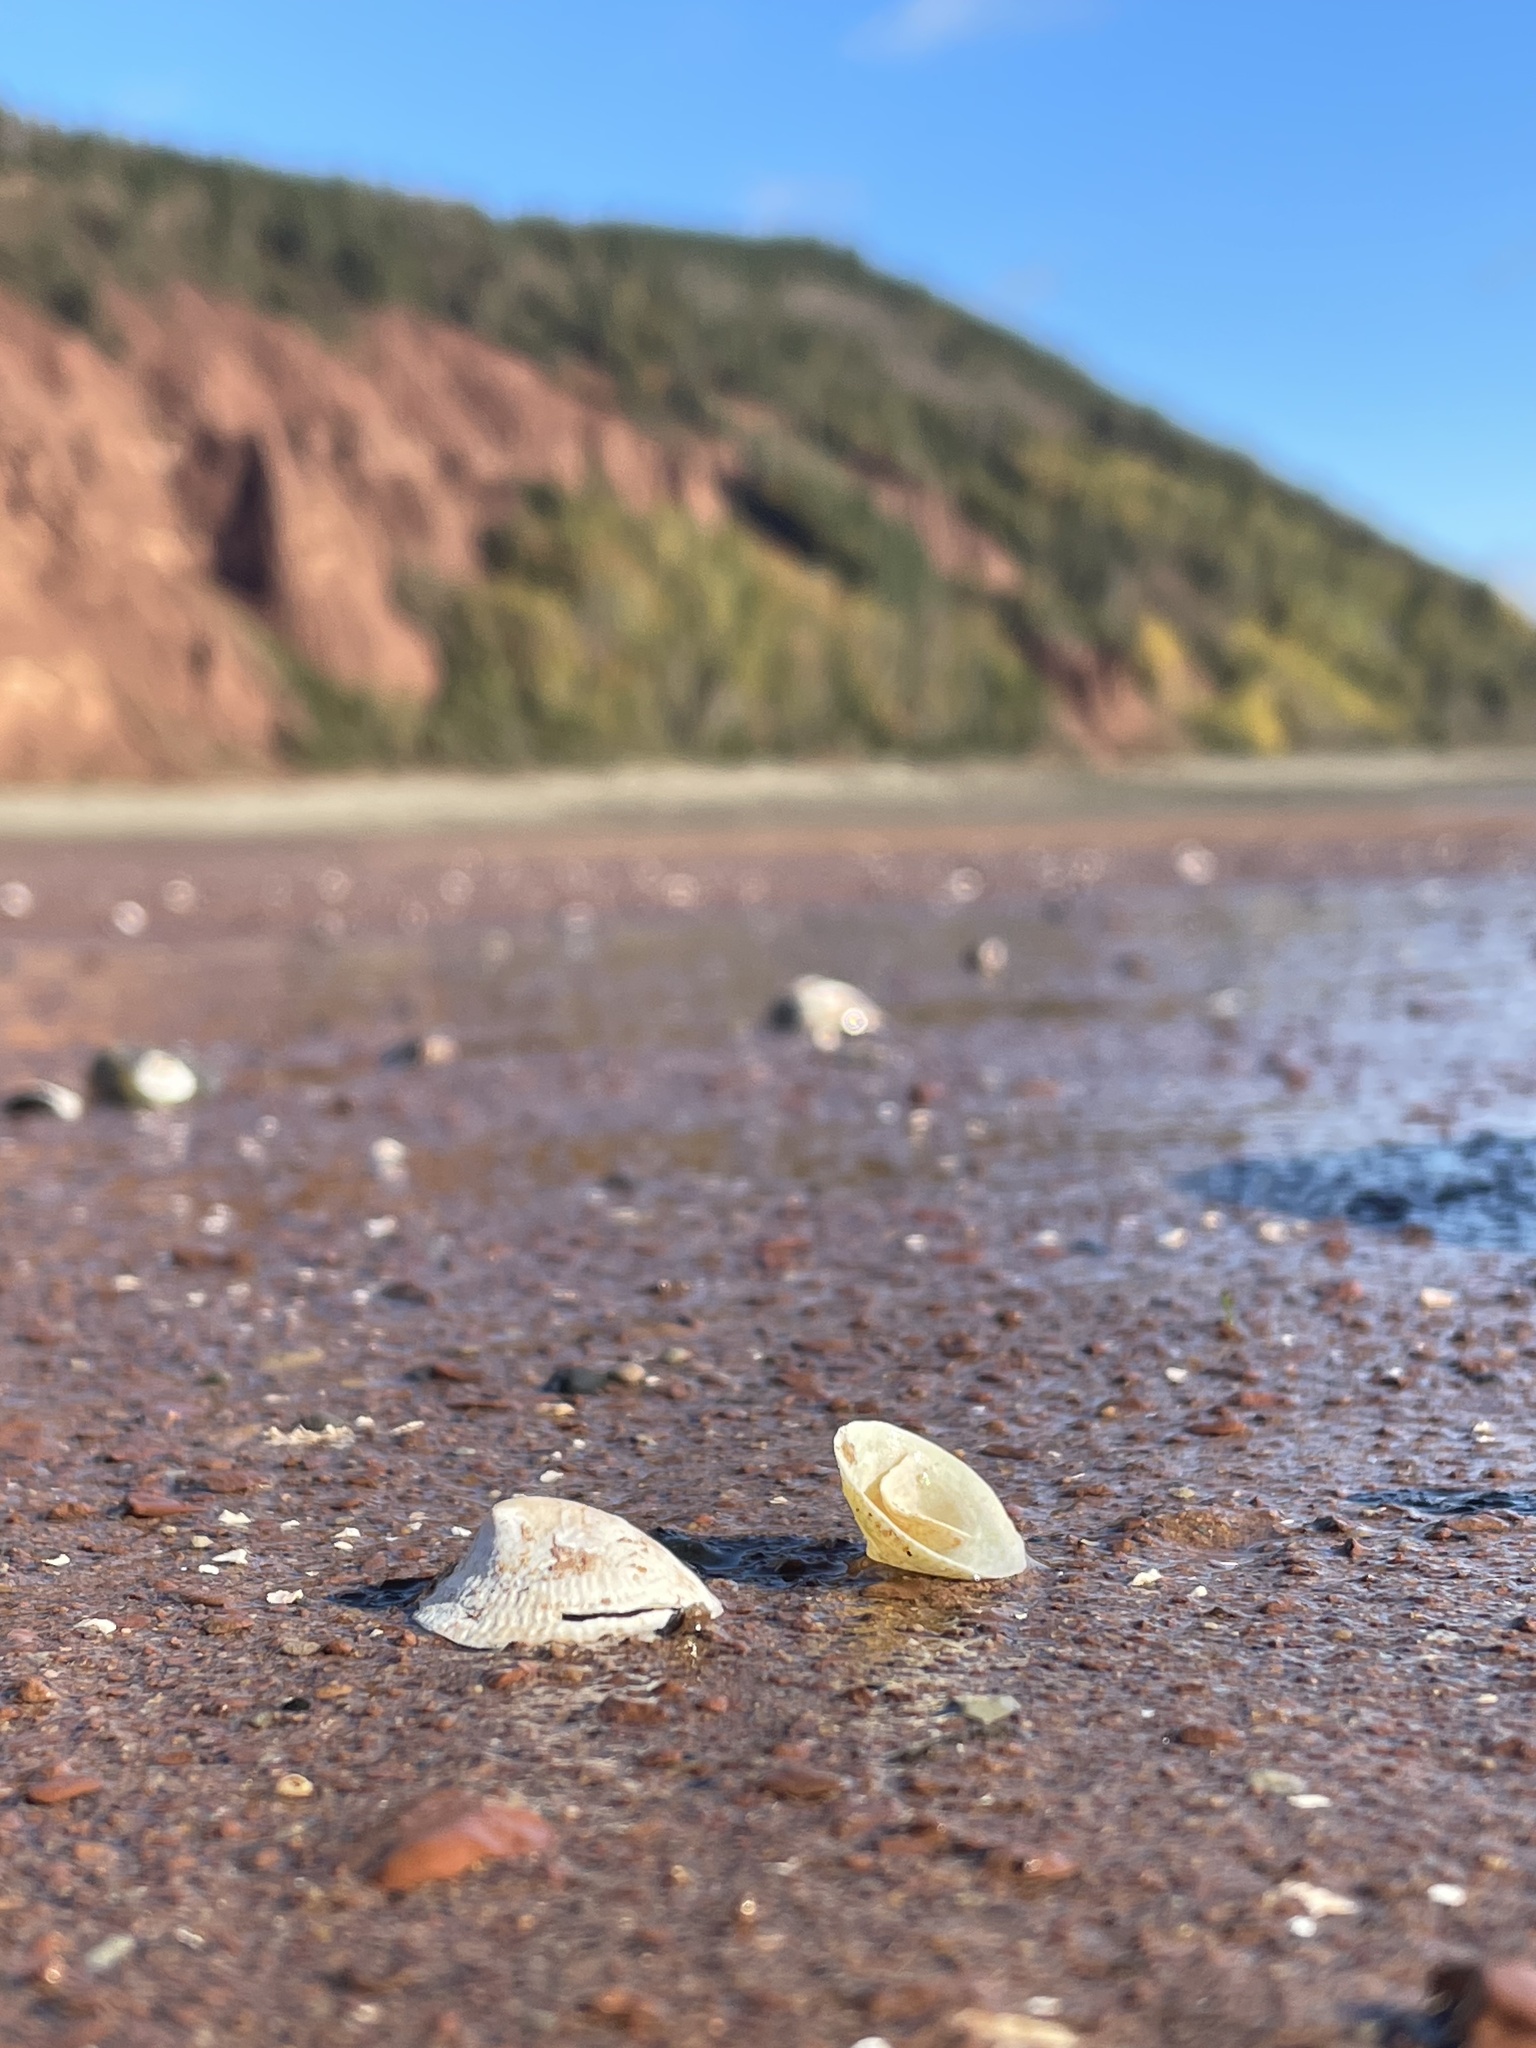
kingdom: Animalia
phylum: Mollusca
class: Gastropoda
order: Littorinimorpha
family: Calyptraeidae
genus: Crucibulum
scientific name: Crucibulum striatum
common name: Striate cup-and -saucer
